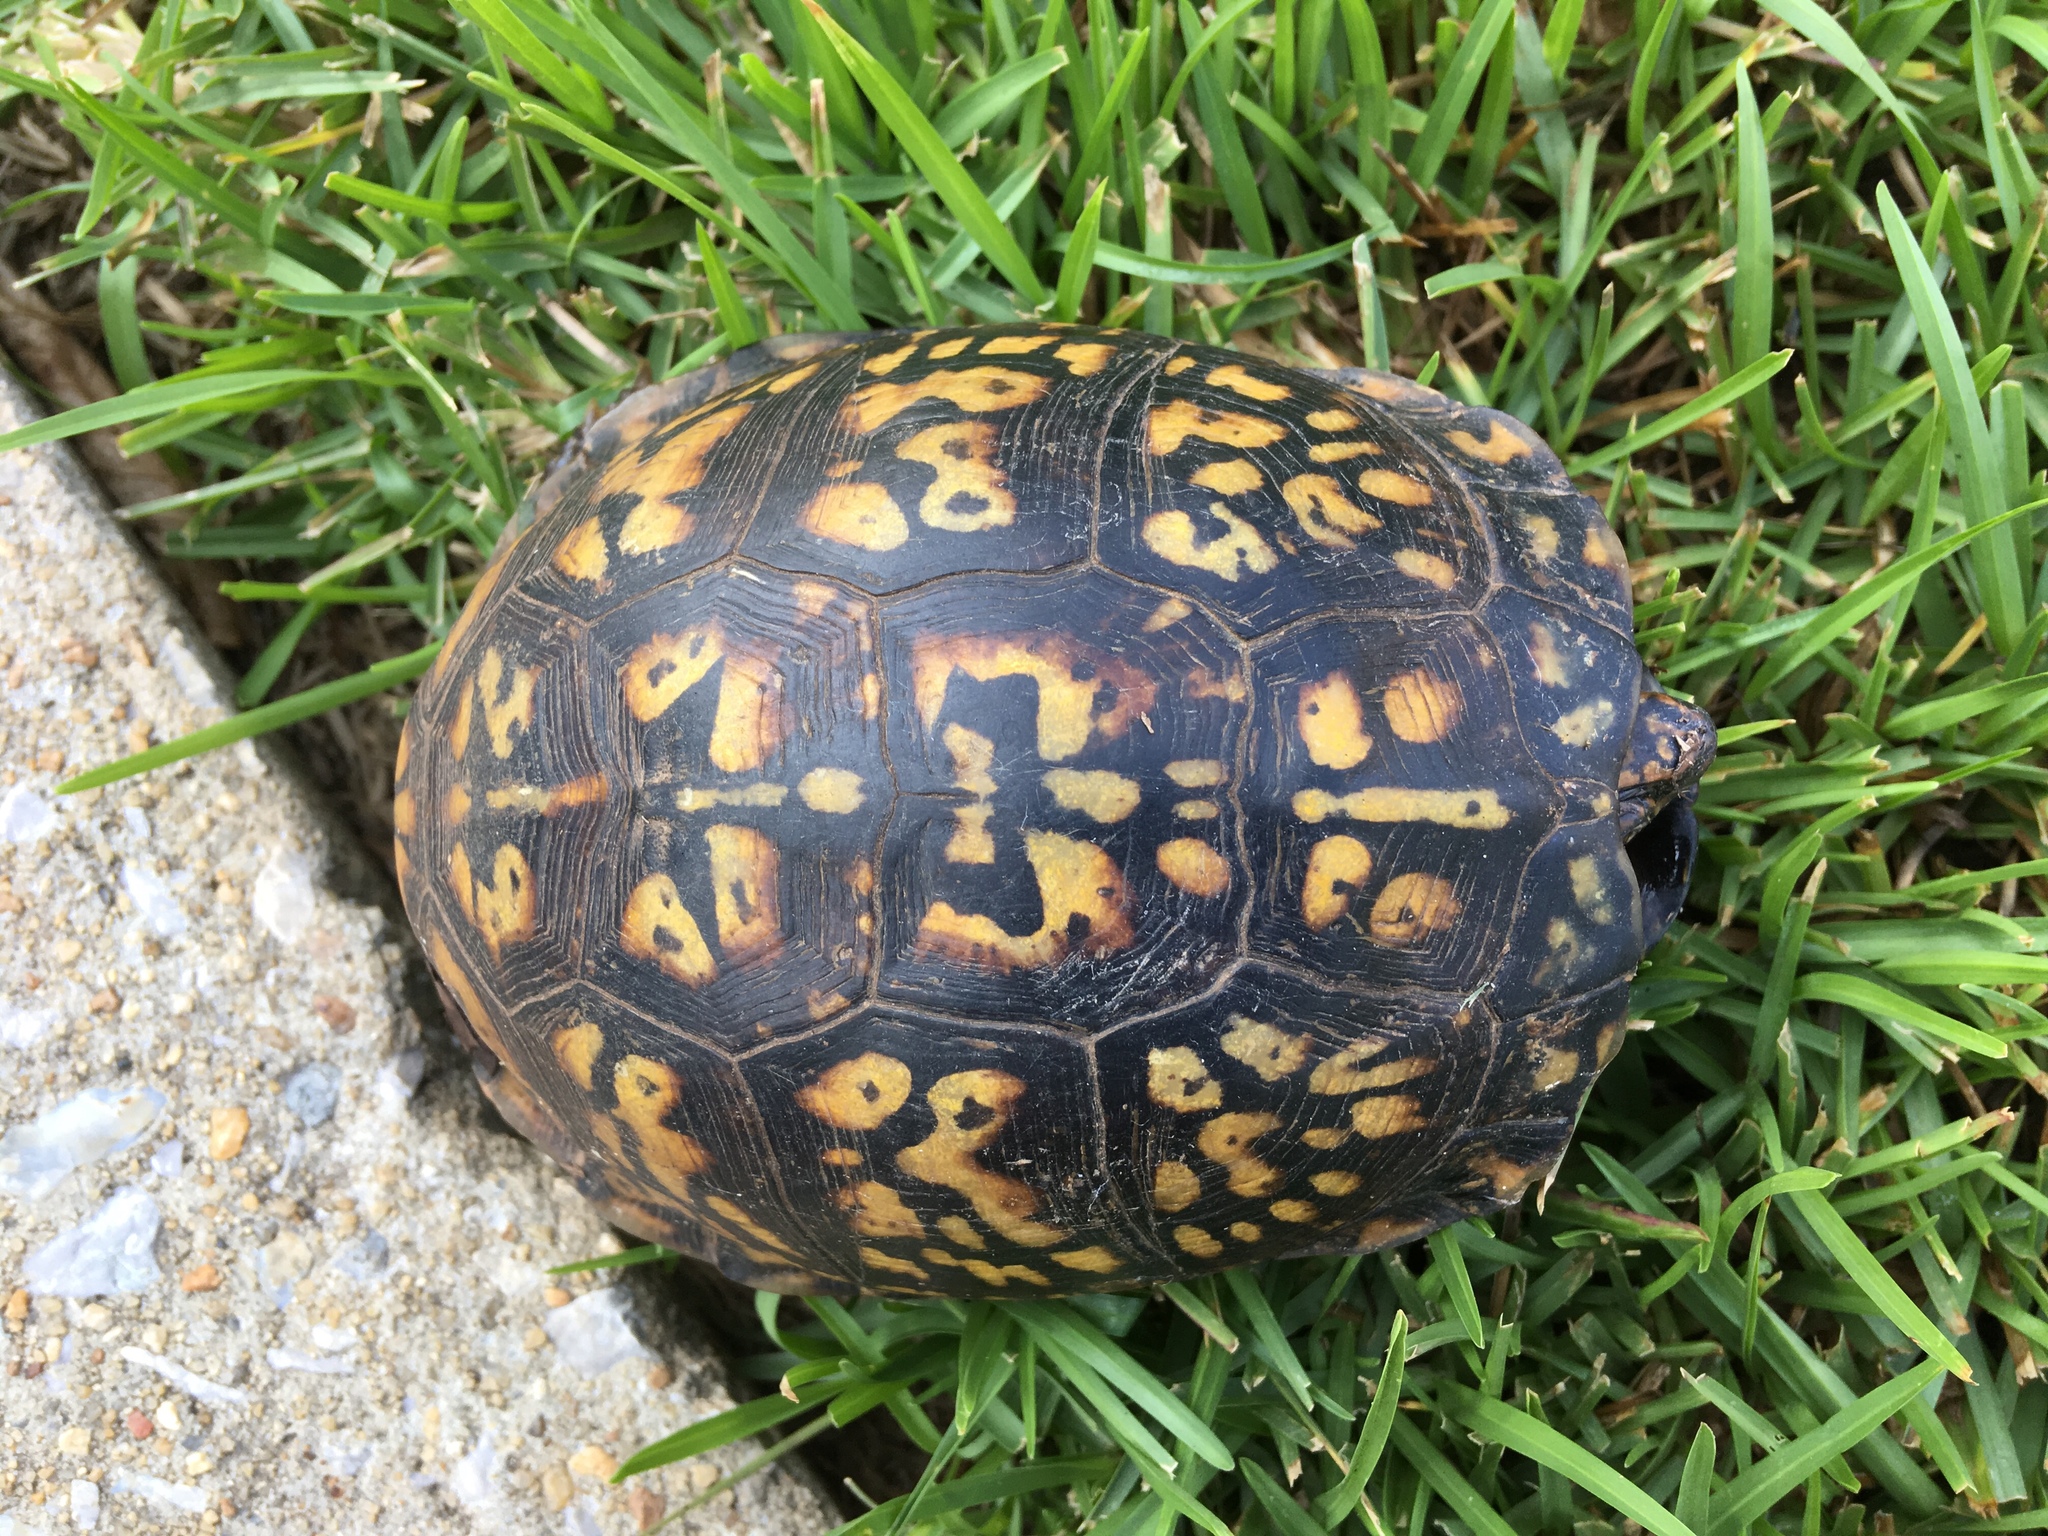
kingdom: Animalia
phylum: Chordata
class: Testudines
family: Emydidae
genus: Terrapene
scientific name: Terrapene carolina
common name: Common box turtle
